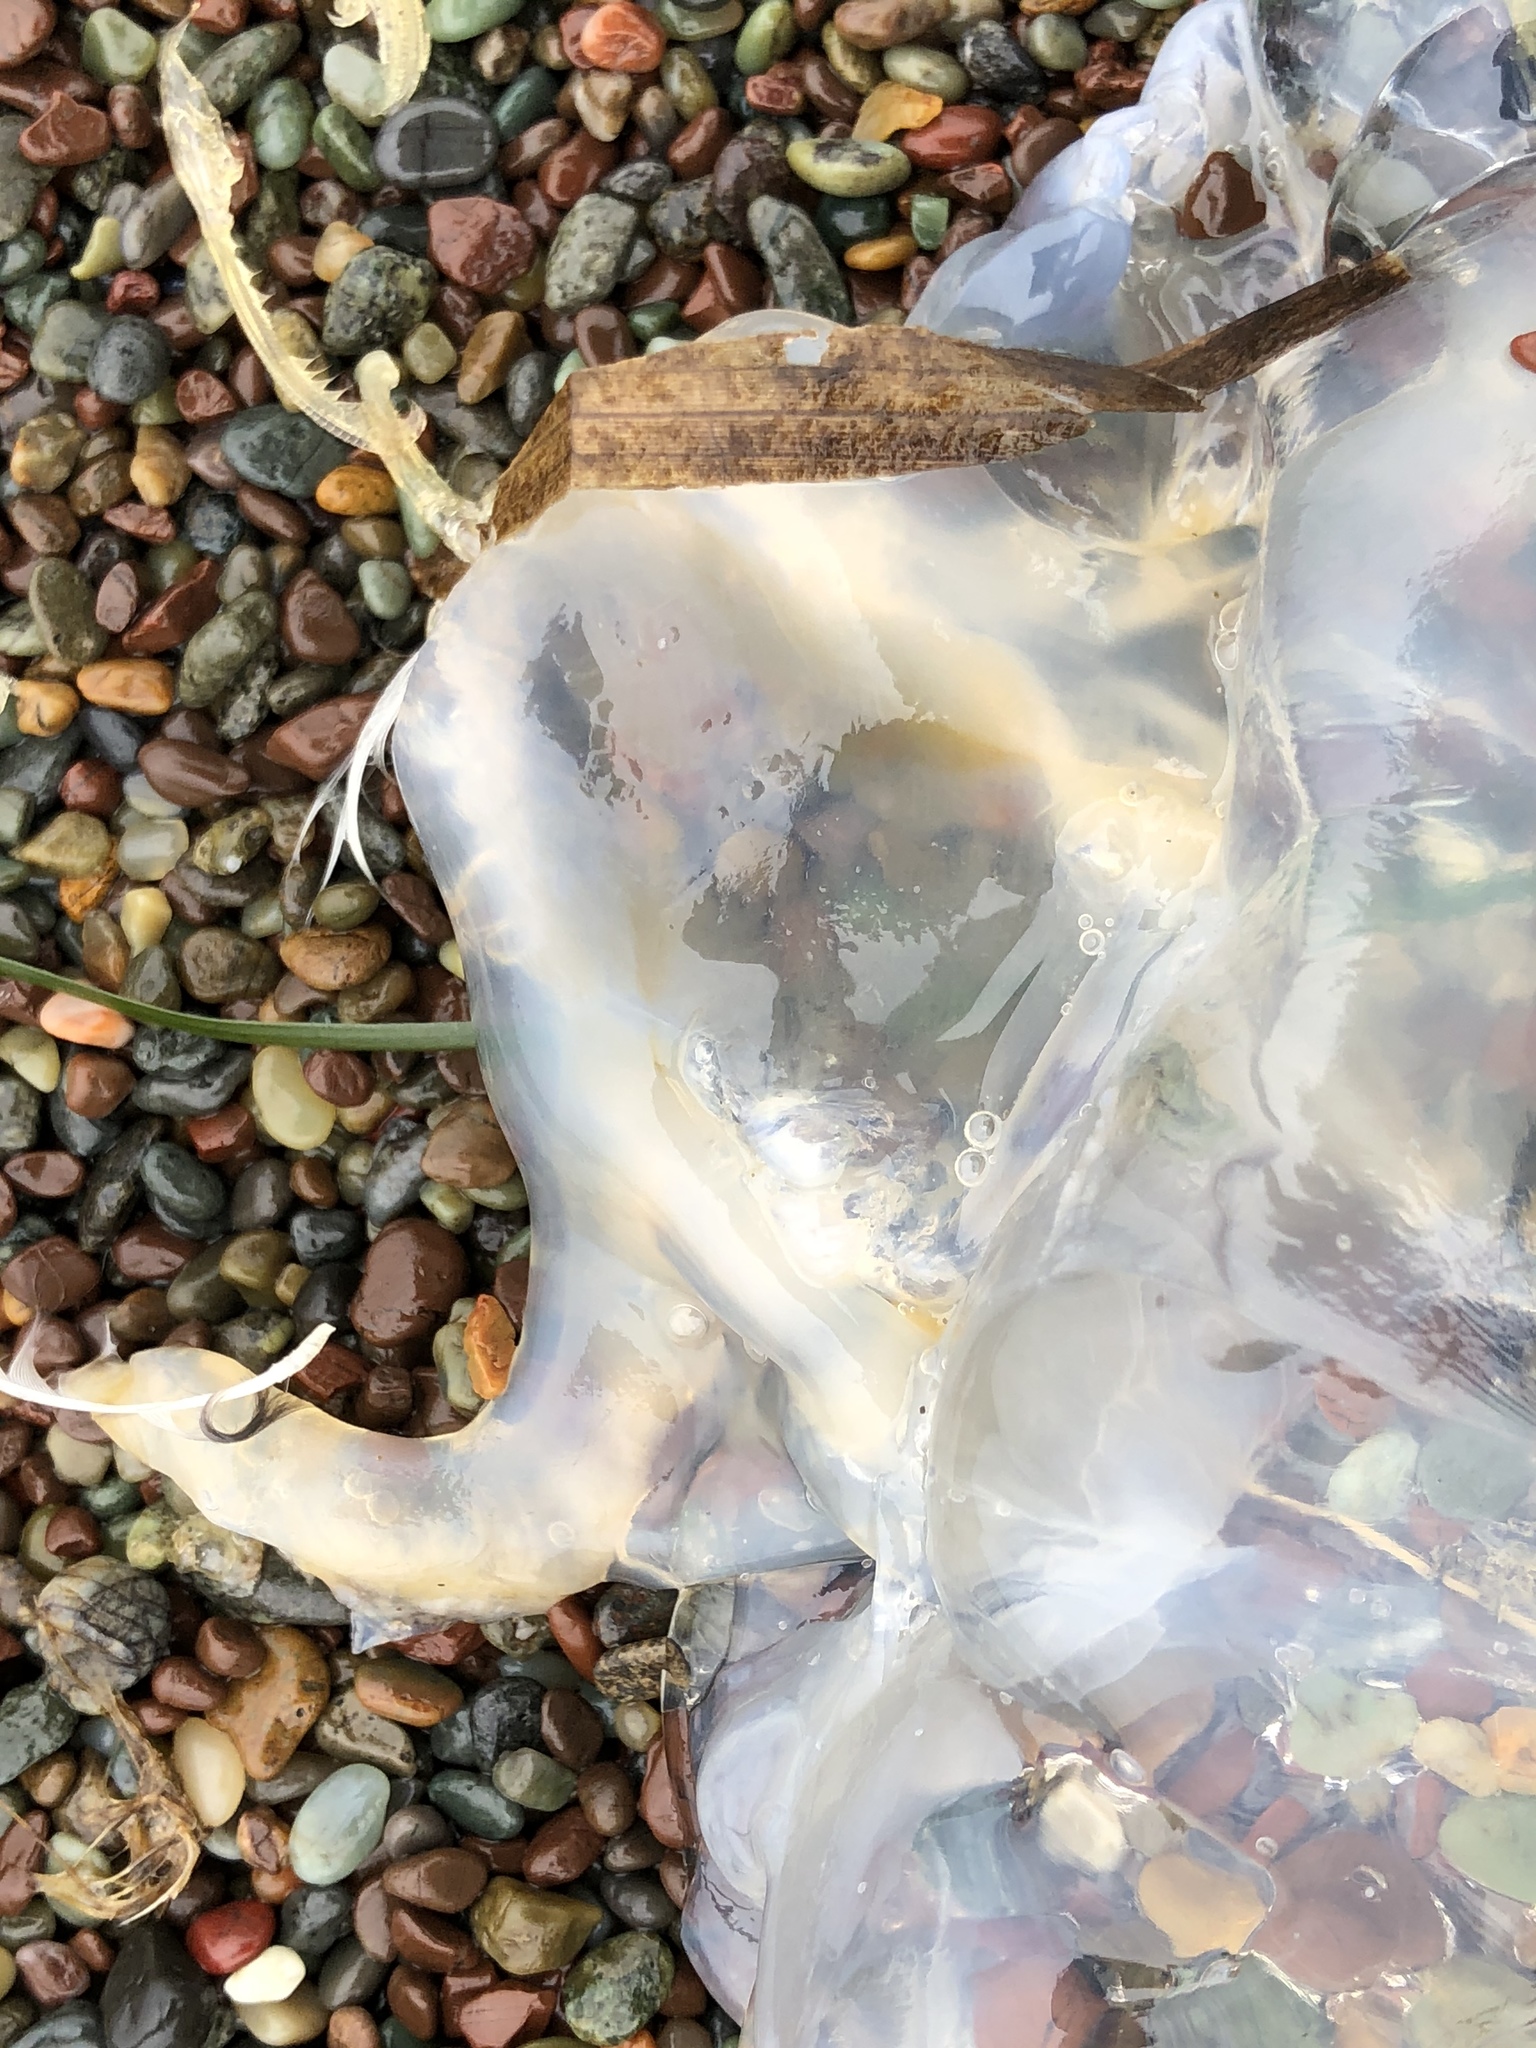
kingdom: Animalia
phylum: Cnidaria
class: Scyphozoa
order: Semaeostomeae
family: Pelagiidae
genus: Chrysaora
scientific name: Chrysaora fuscescens
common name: Sea nettle
